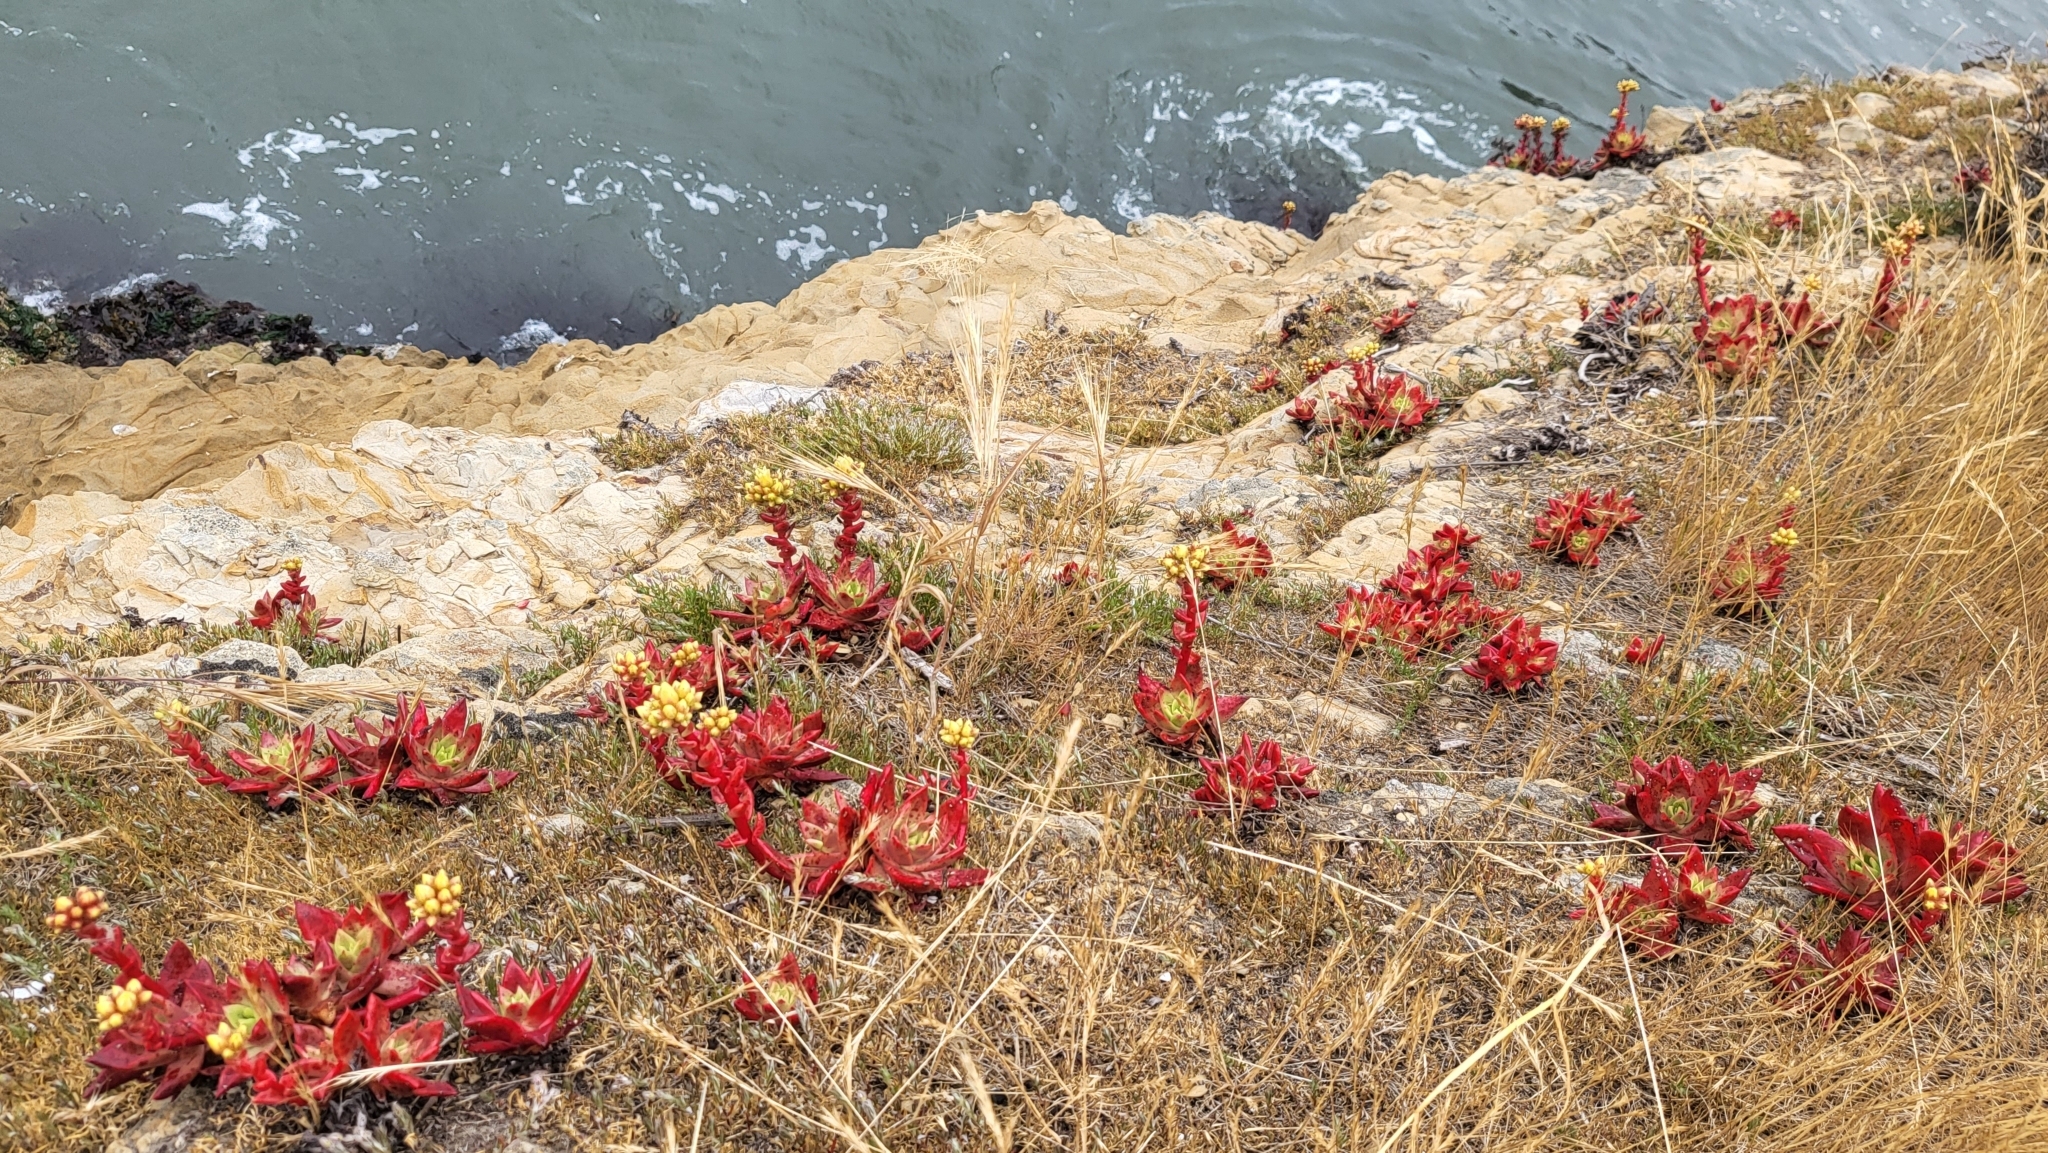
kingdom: Plantae
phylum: Tracheophyta
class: Magnoliopsida
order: Saxifragales
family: Crassulaceae
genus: Dudleya
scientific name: Dudleya farinosa
